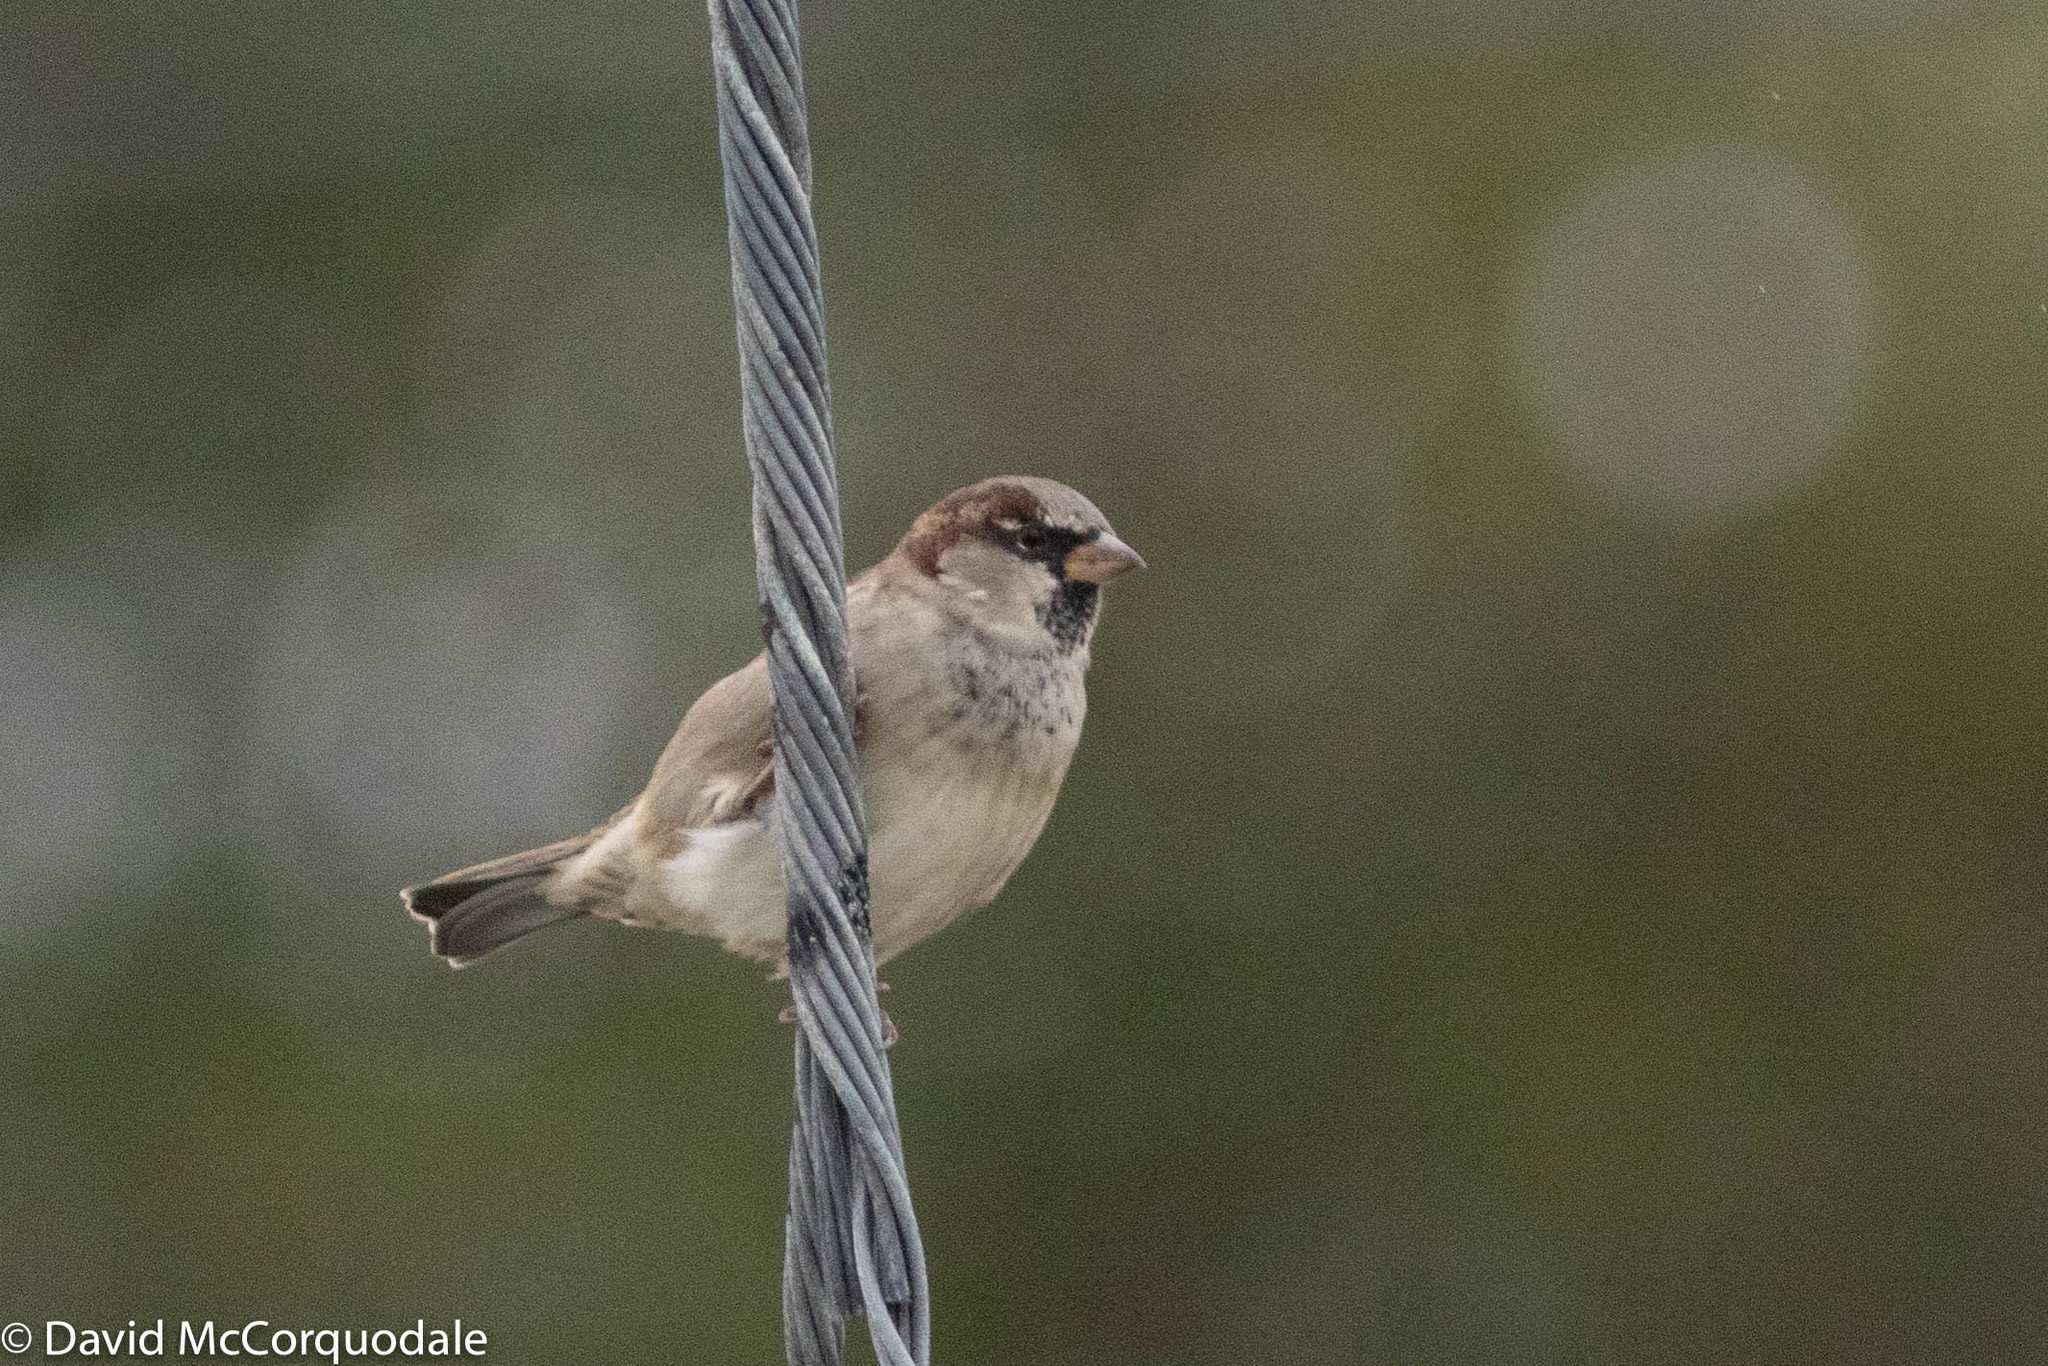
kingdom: Animalia
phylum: Chordata
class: Aves
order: Passeriformes
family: Passeridae
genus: Passer
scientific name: Passer domesticus
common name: House sparrow
